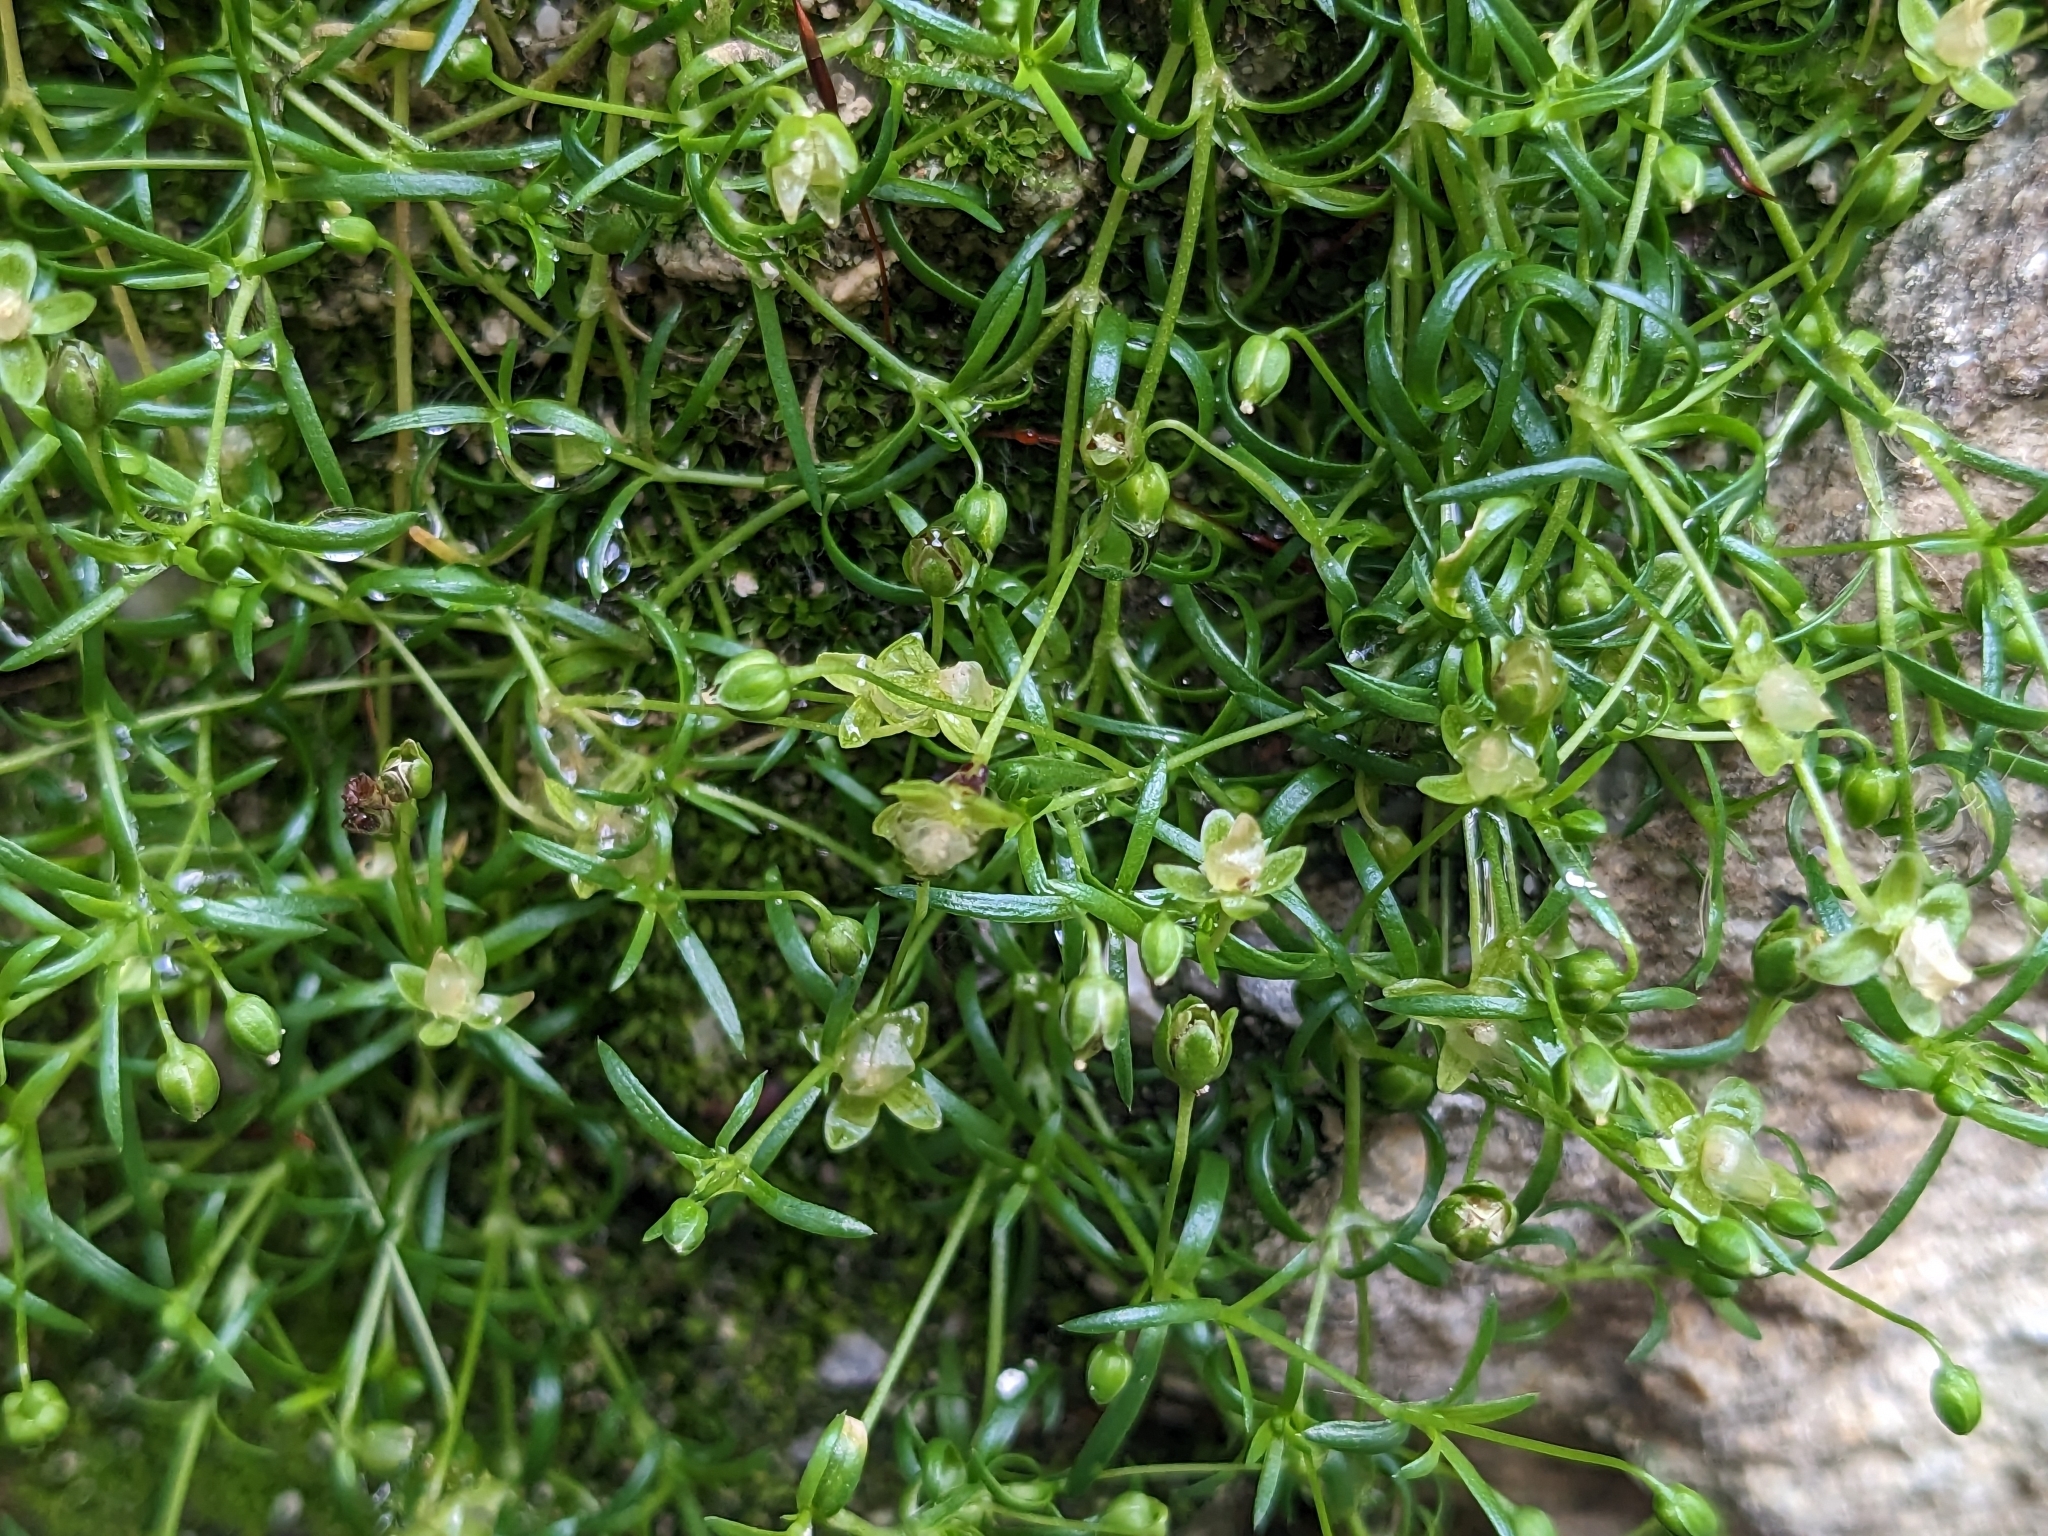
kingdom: Plantae
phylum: Tracheophyta
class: Magnoliopsida
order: Caryophyllales
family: Caryophyllaceae
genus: Sagina
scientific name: Sagina procumbens
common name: Procumbent pearlwort
